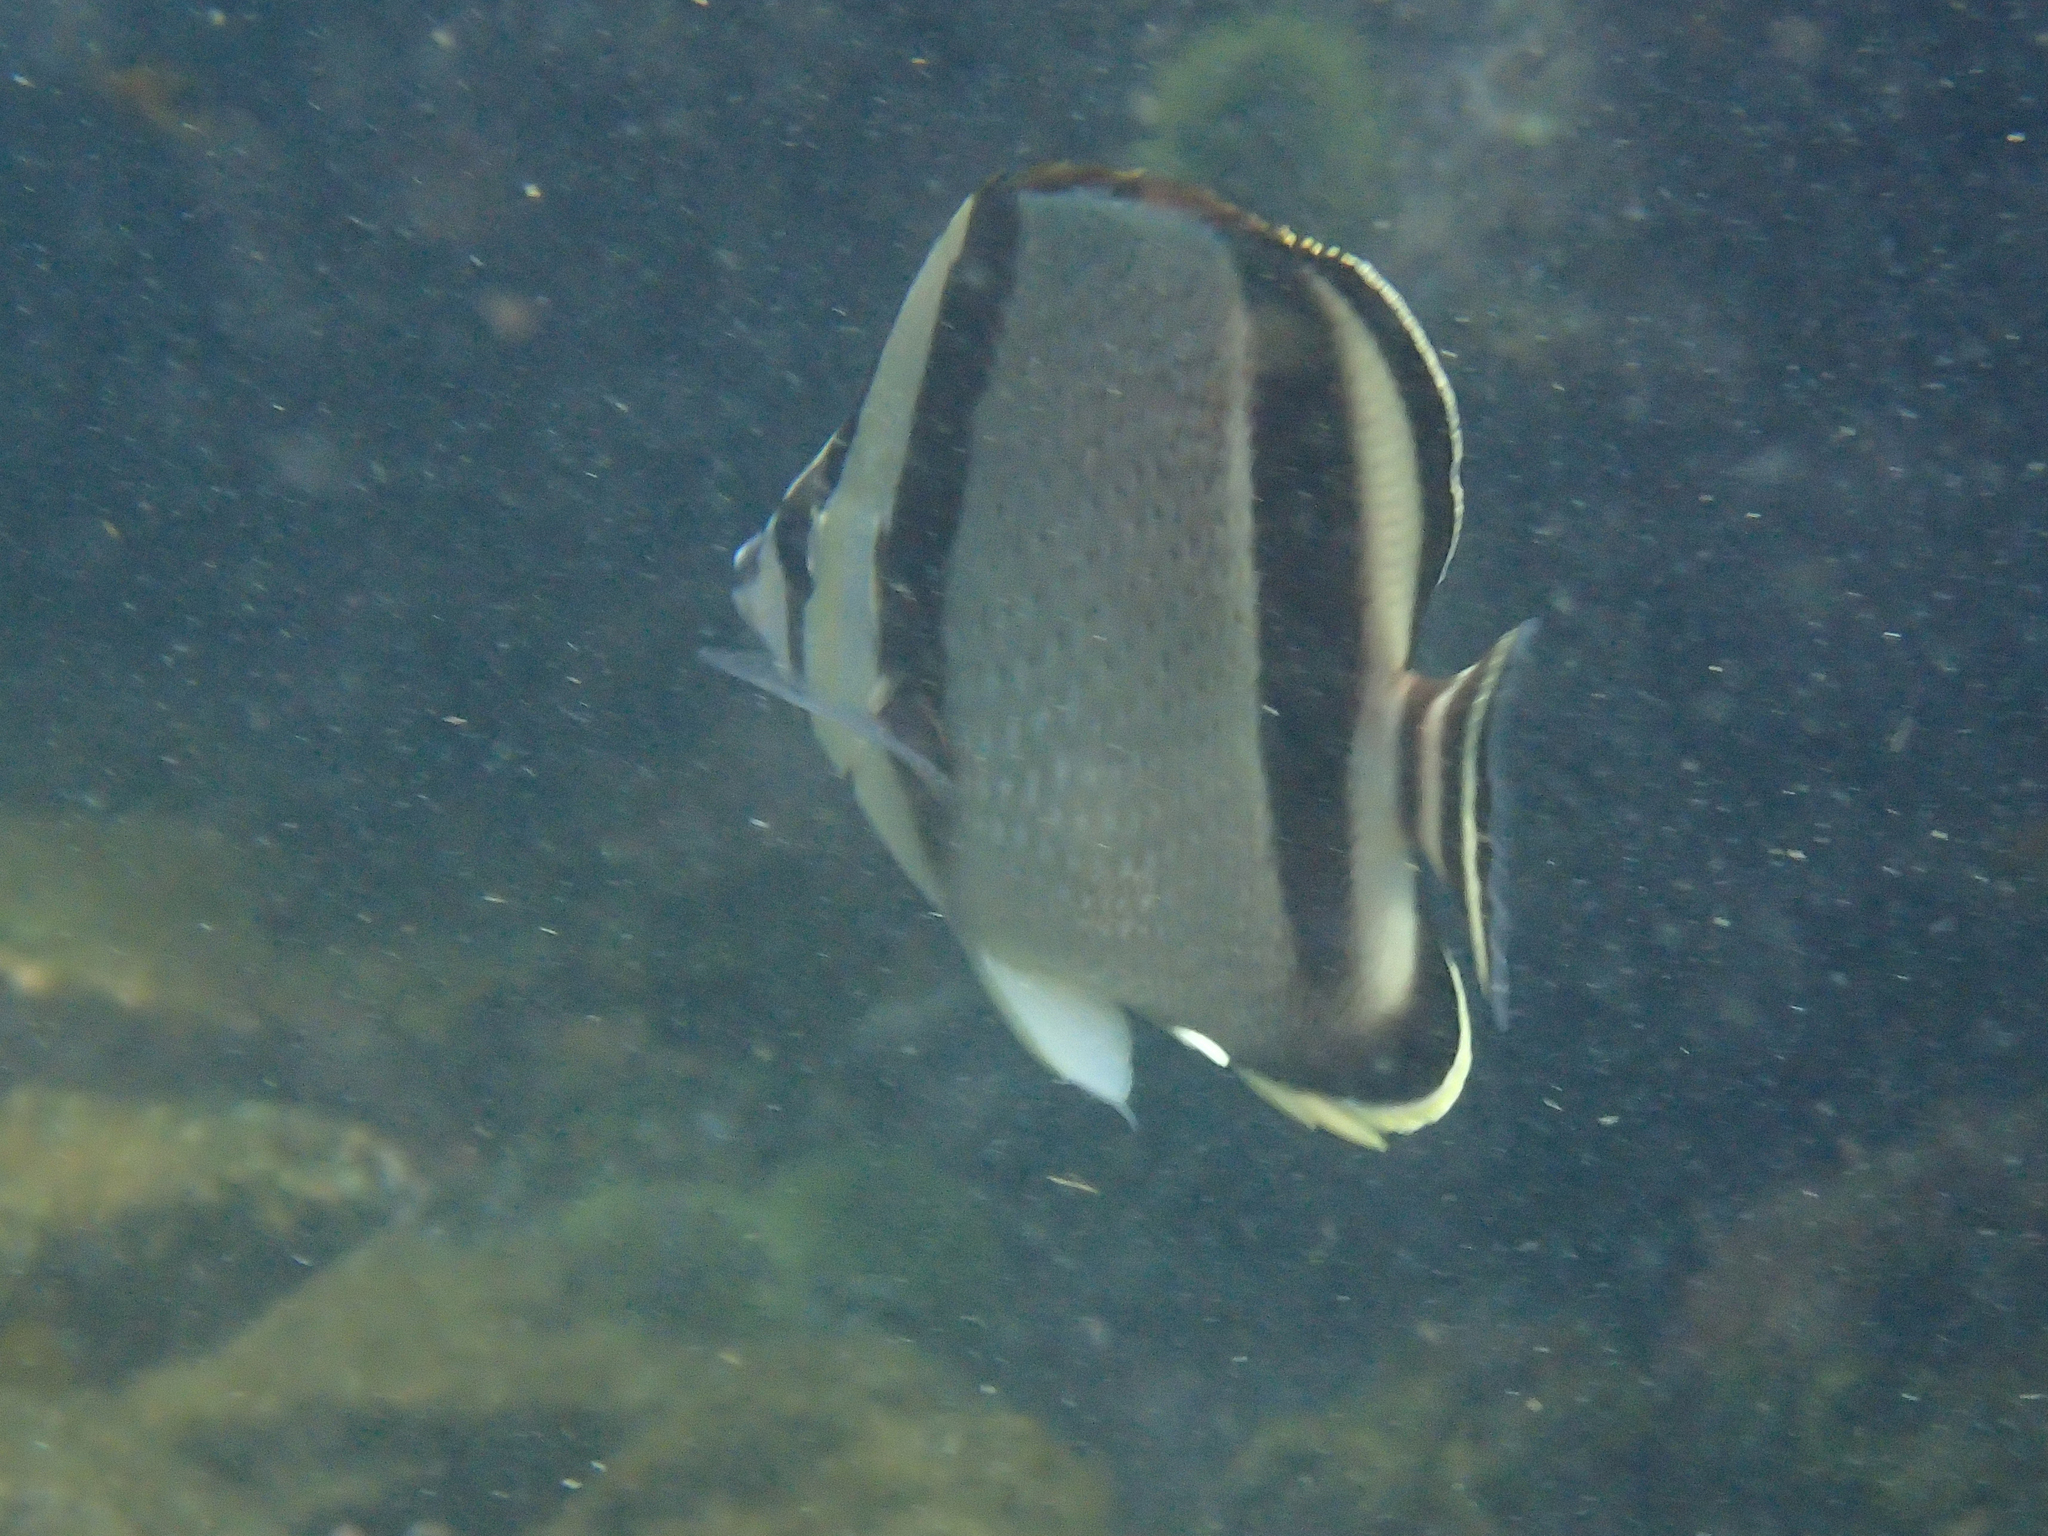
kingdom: Animalia
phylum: Chordata
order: Perciformes
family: Chaetodontidae
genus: Chaetodon
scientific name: Chaetodon humeralis
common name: Threebanded butterflyfish
